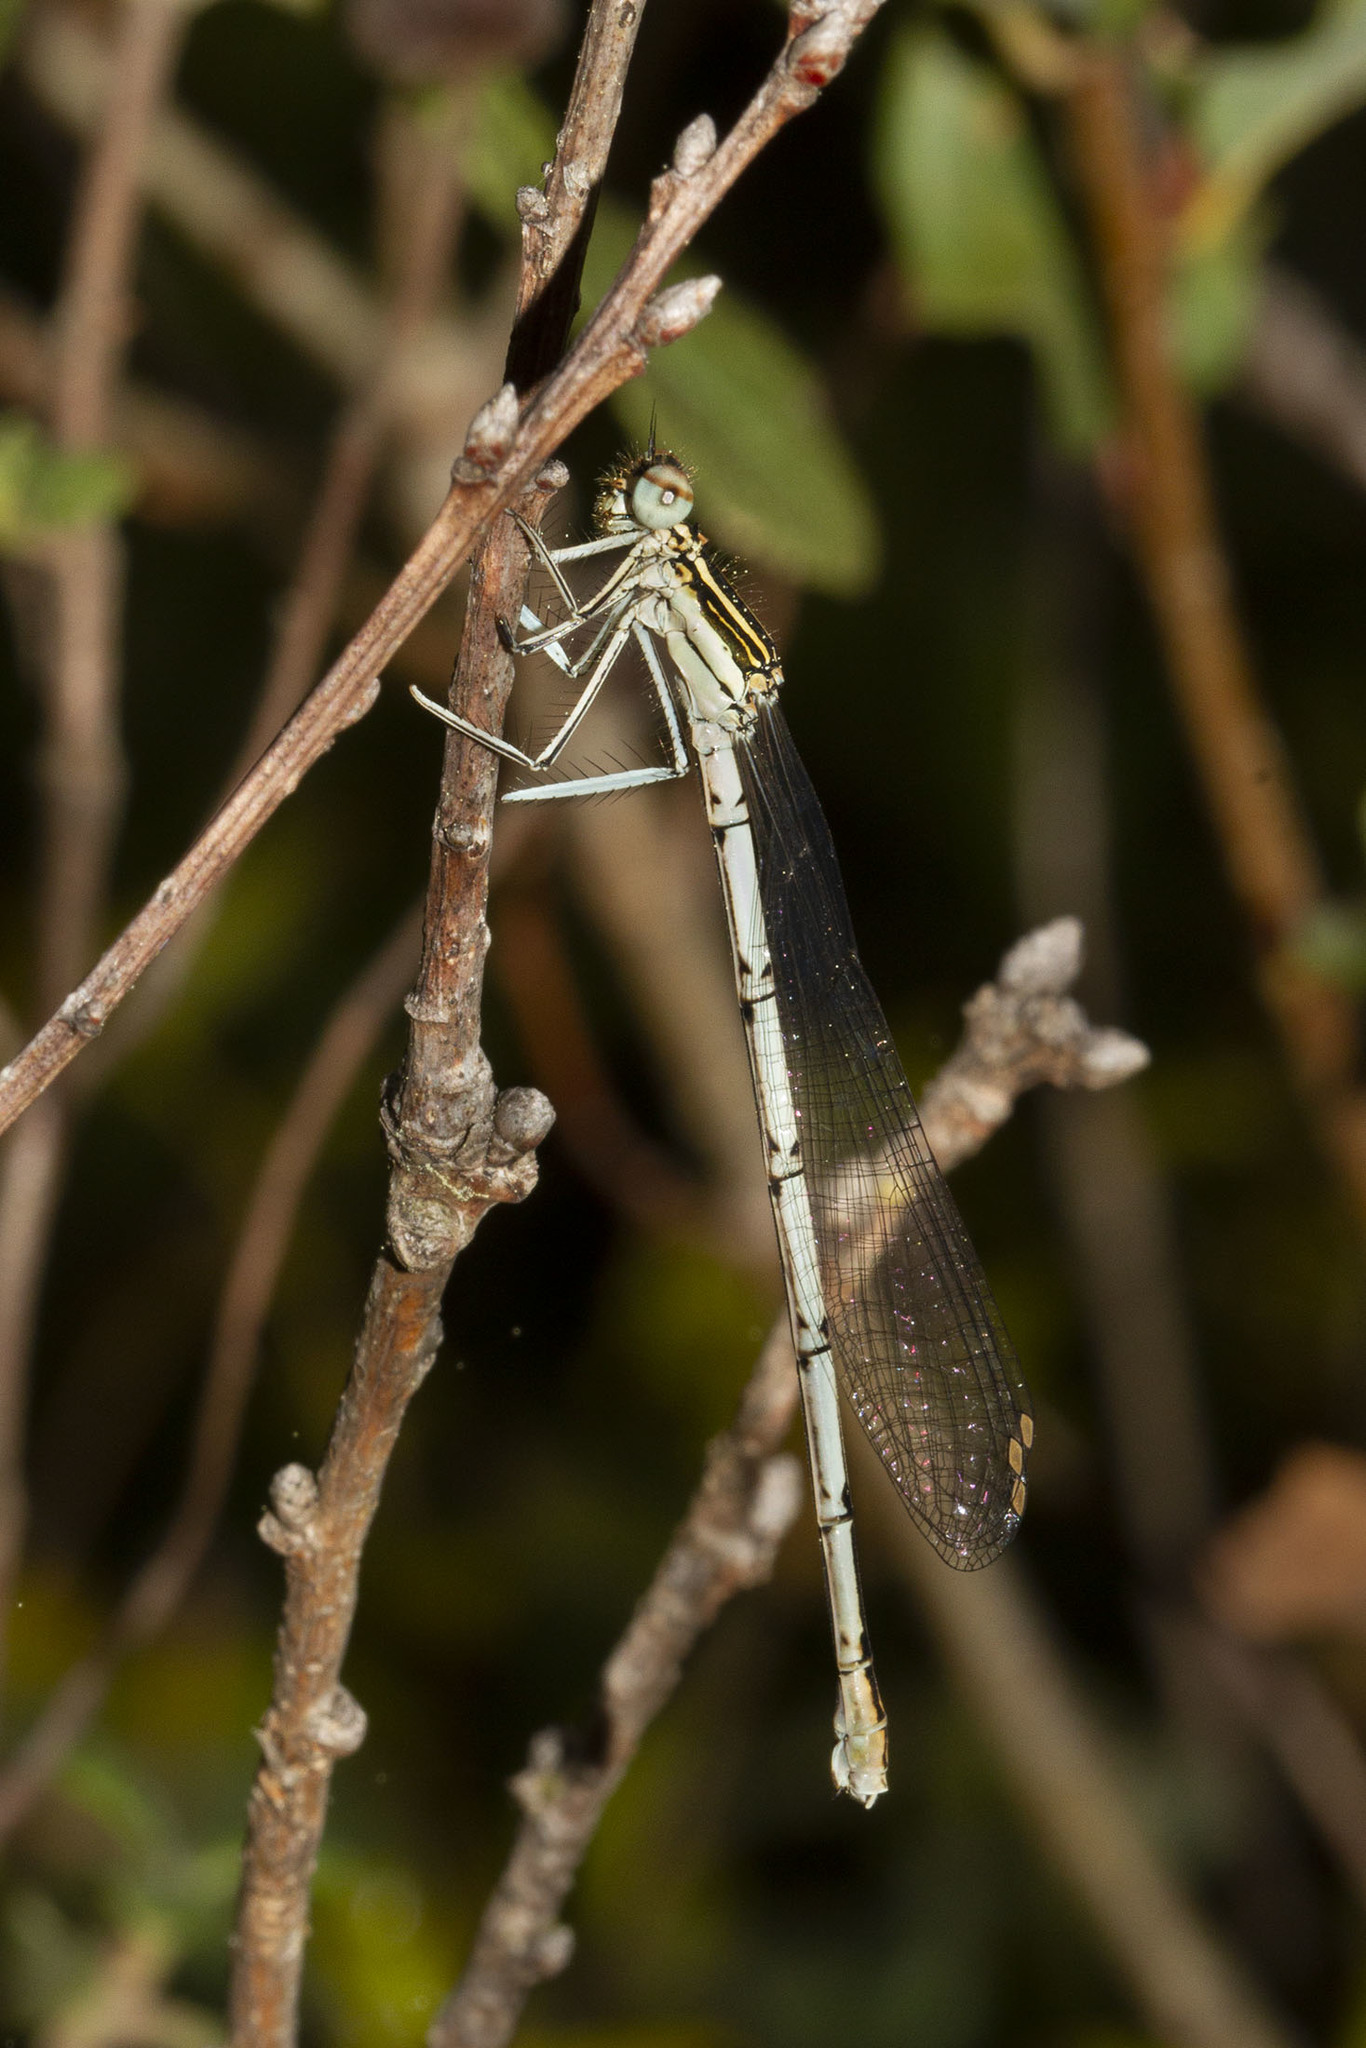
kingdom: Animalia
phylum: Arthropoda
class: Insecta
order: Odonata
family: Platycnemididae
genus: Platycnemis
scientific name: Platycnemis pennipes
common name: White-legged damselfly
